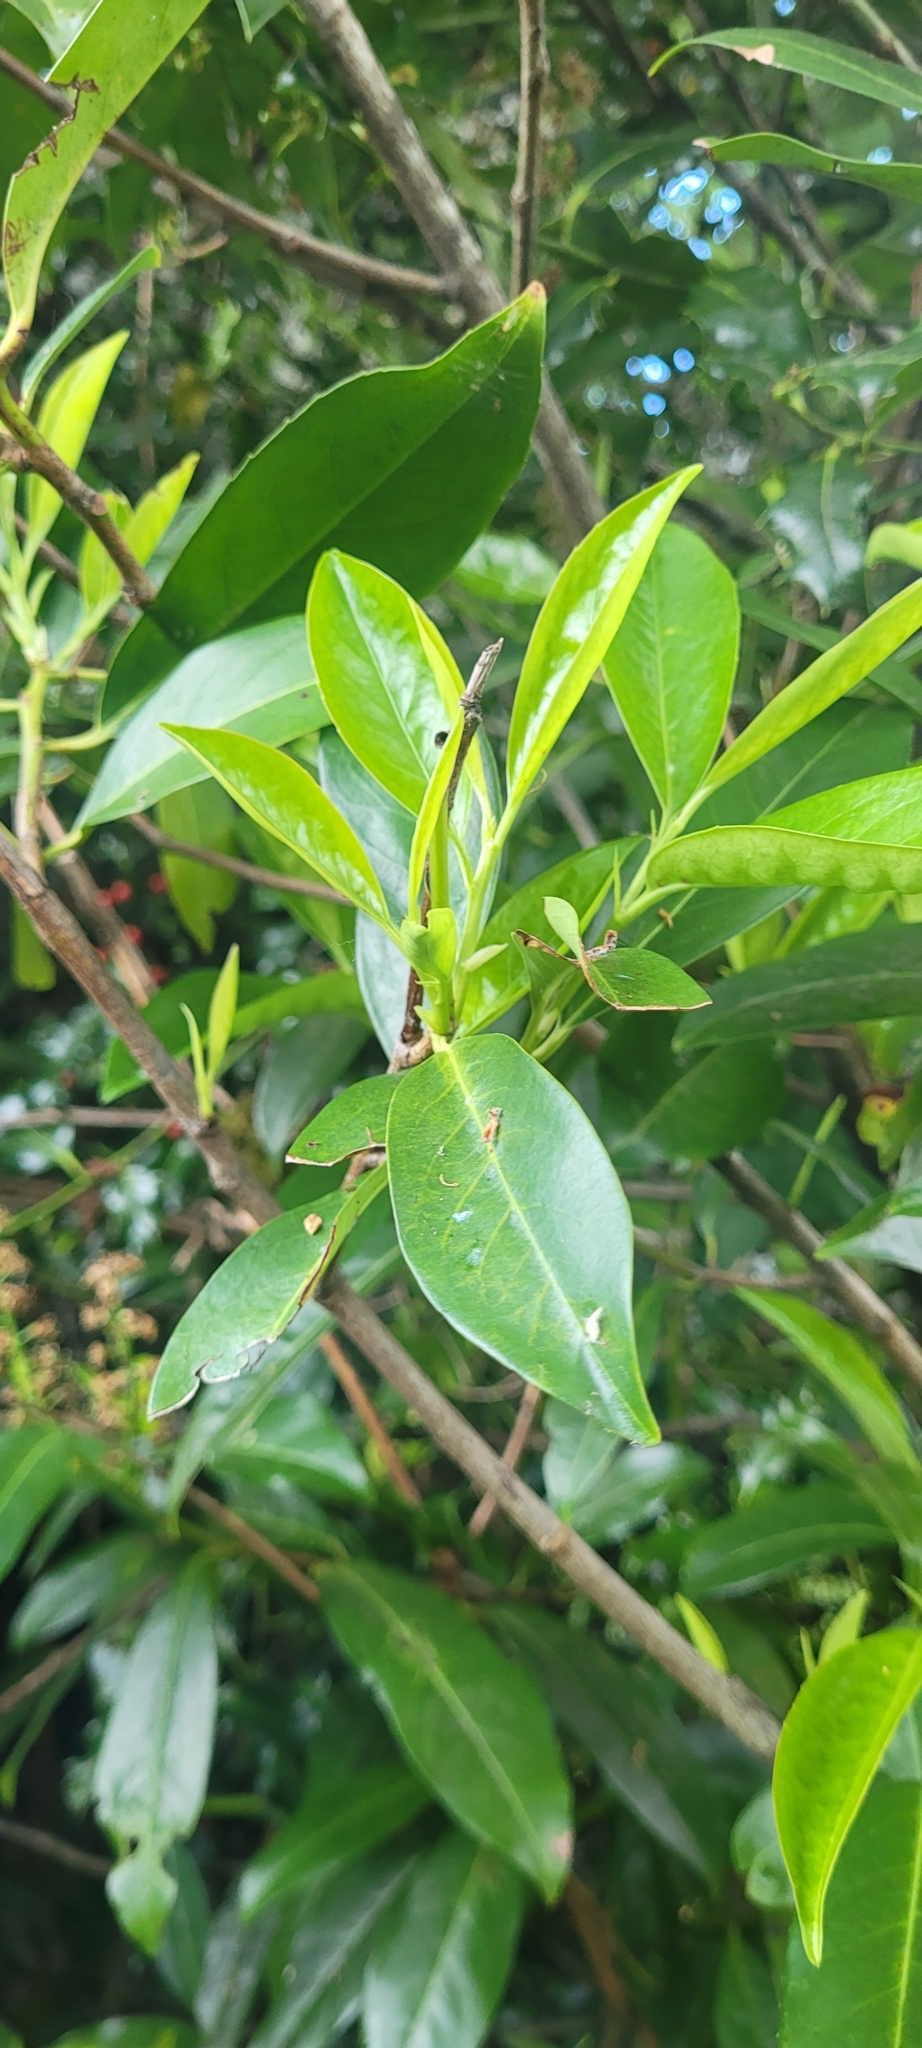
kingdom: Plantae
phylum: Tracheophyta
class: Magnoliopsida
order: Rosales
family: Rosaceae
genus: Prunus
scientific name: Prunus laurocerasus
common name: Cherry laurel
